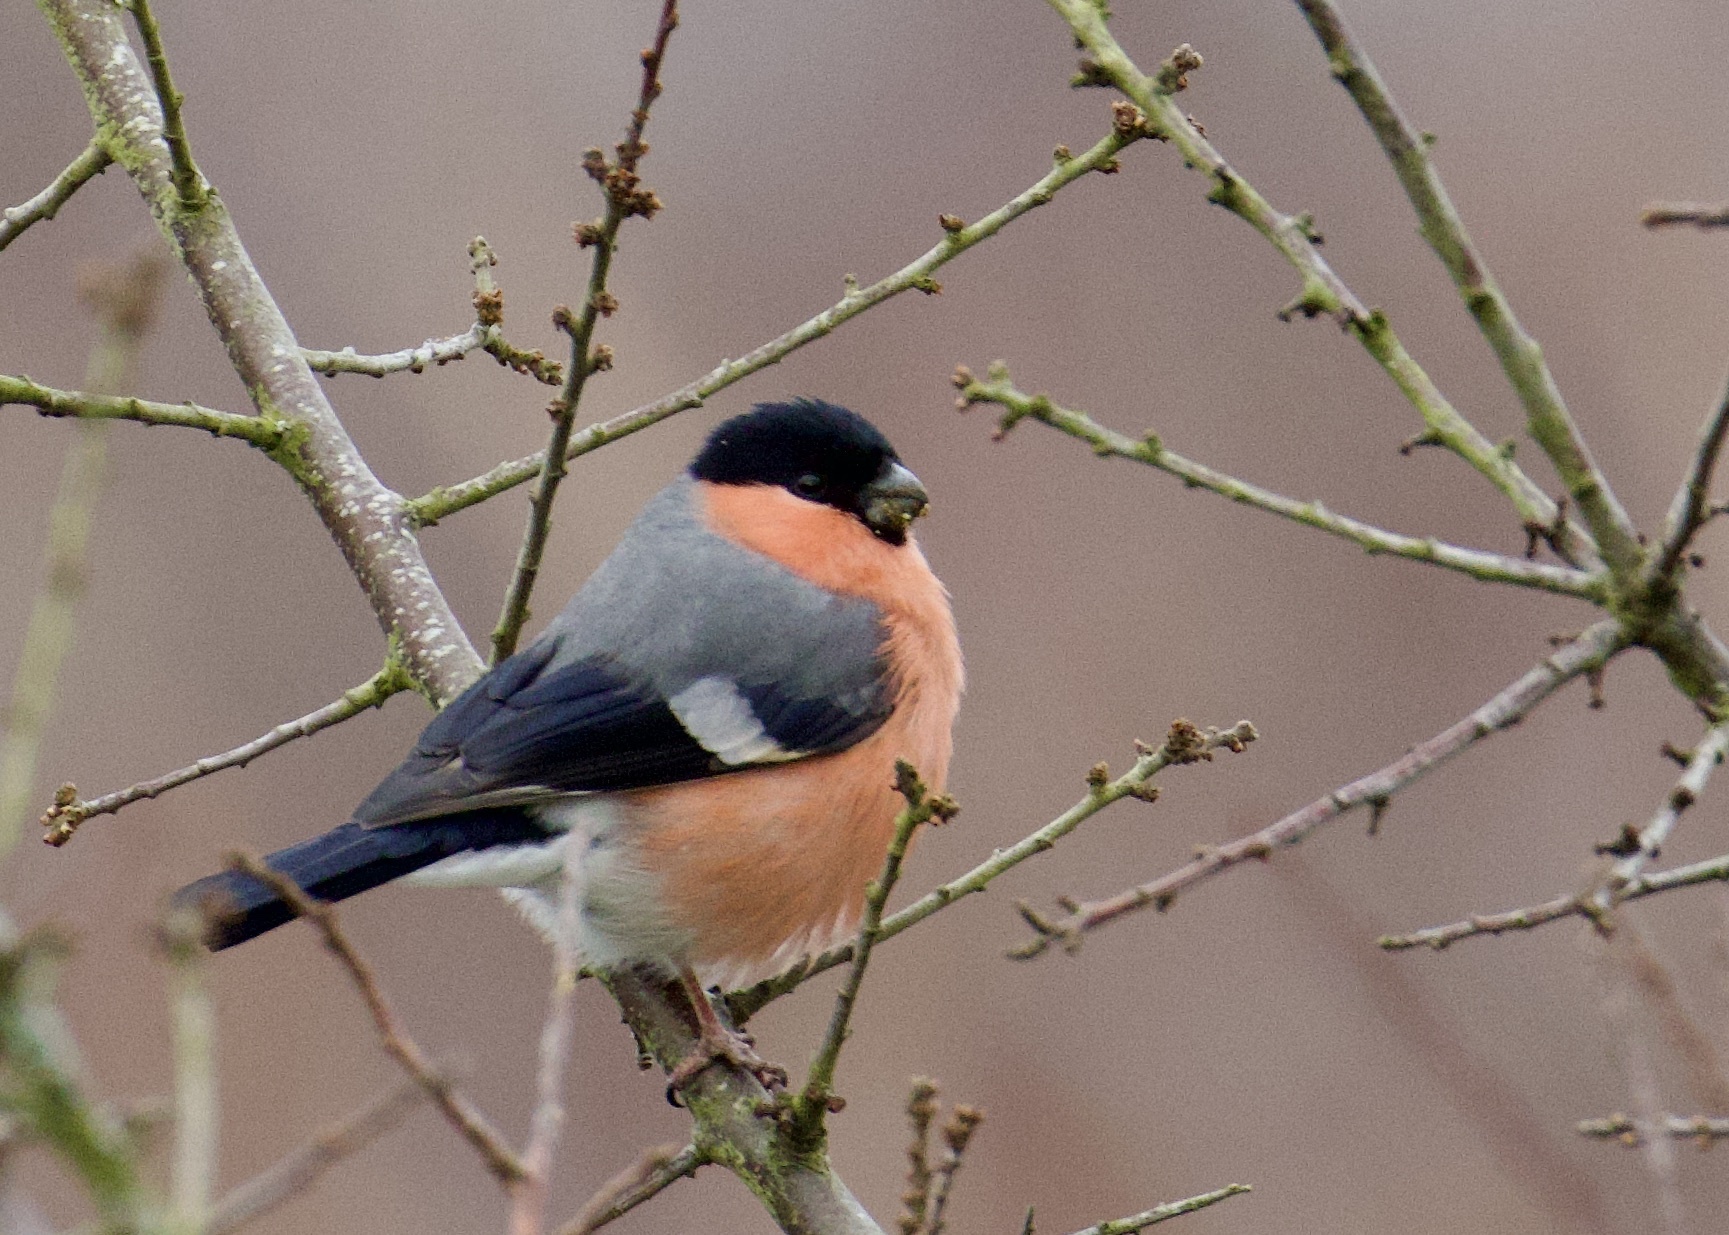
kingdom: Animalia
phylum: Chordata
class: Aves
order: Passeriformes
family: Fringillidae
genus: Pyrrhula
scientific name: Pyrrhula pyrrhula
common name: Eurasian bullfinch
